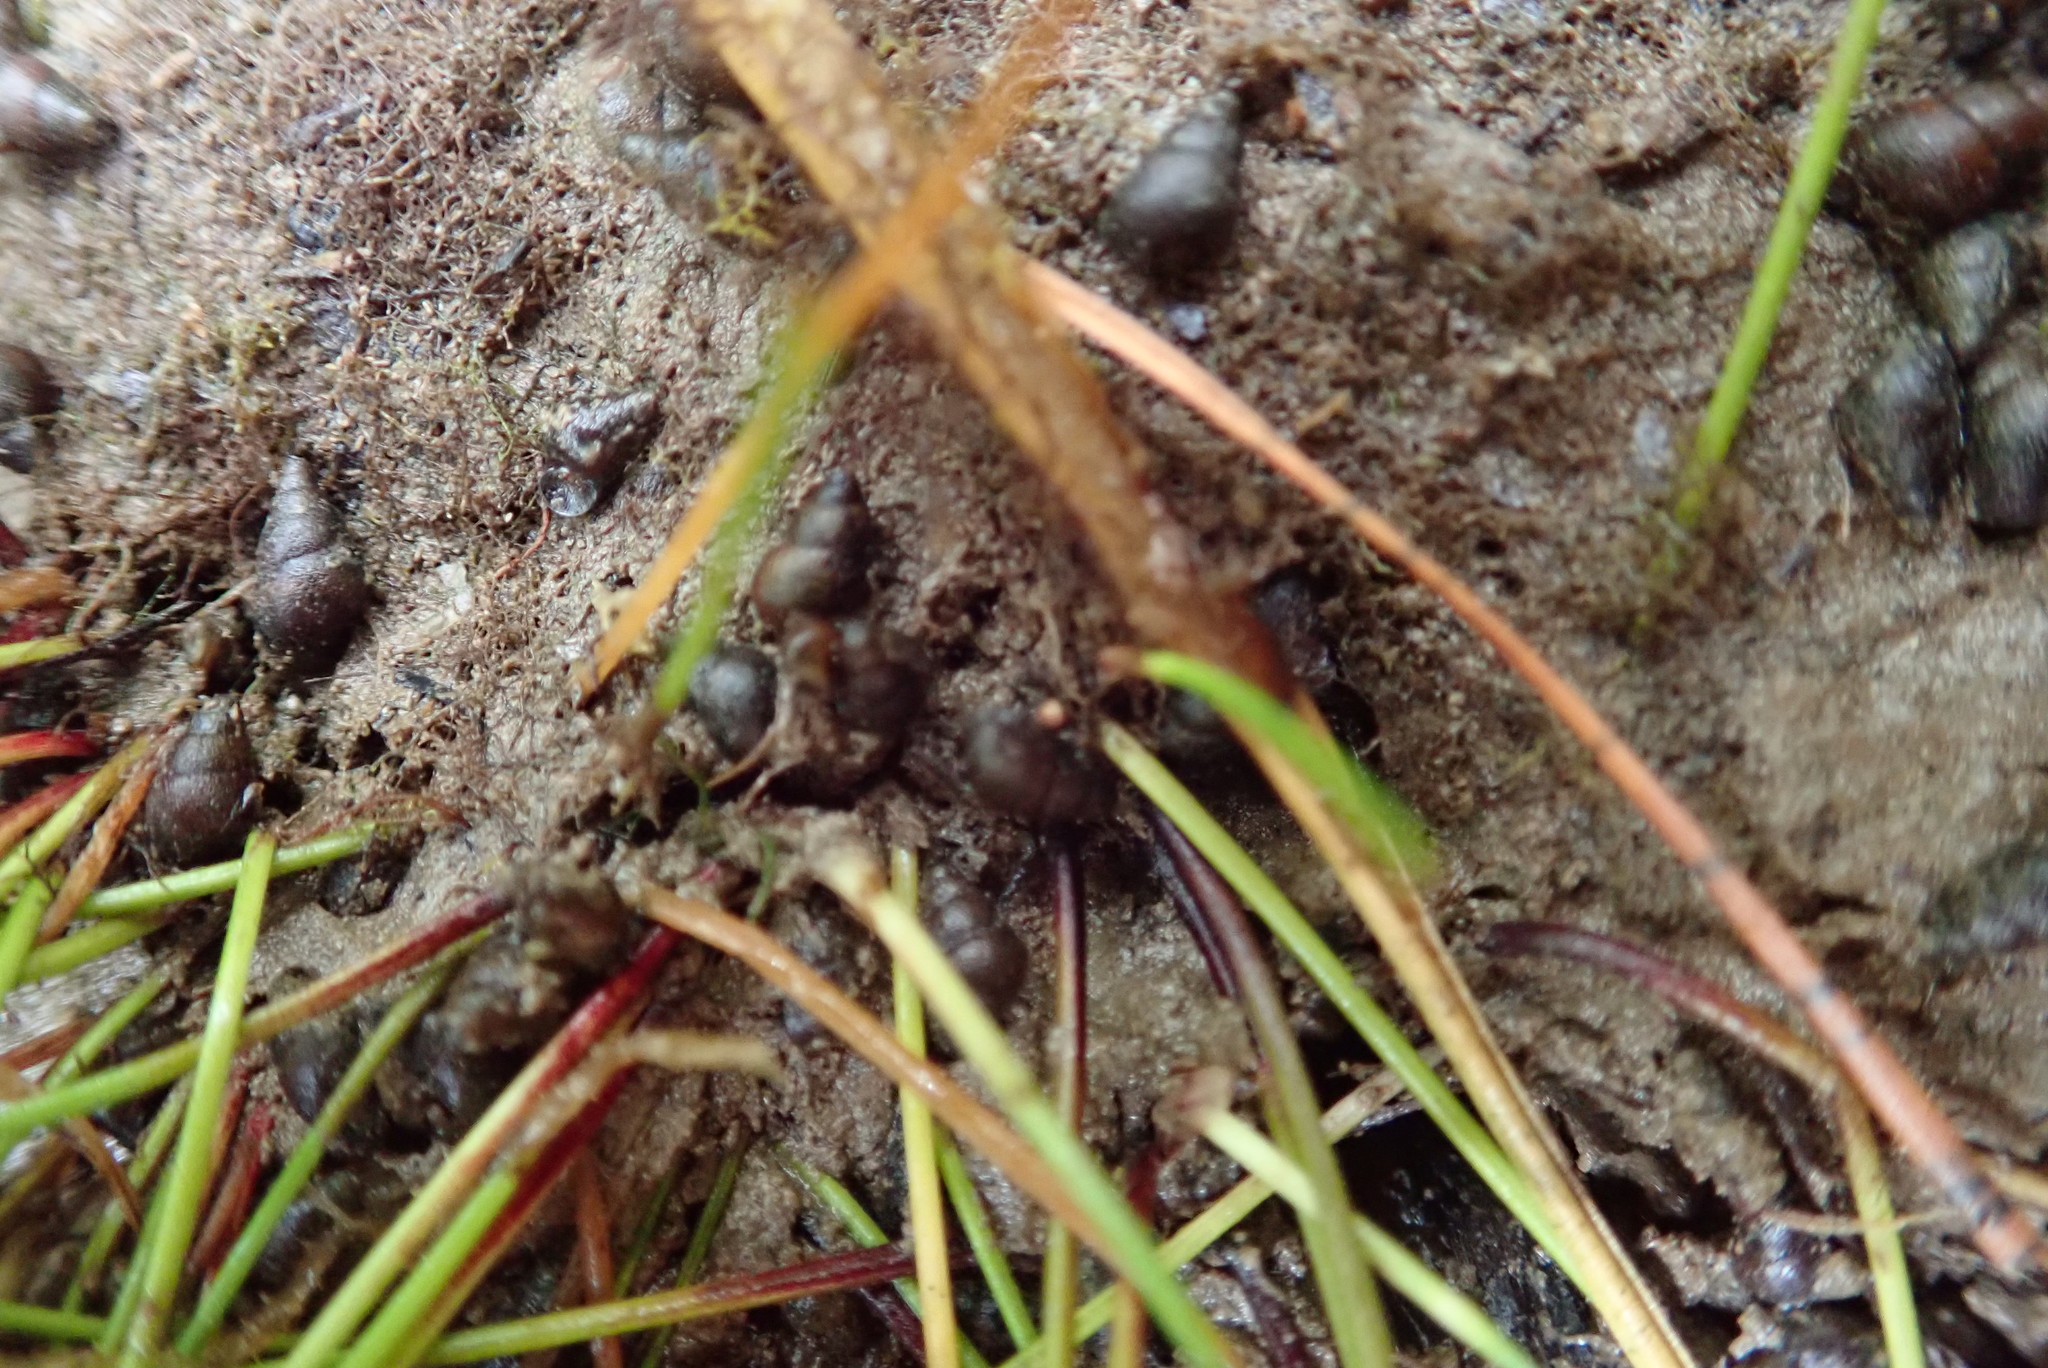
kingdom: Animalia
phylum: Mollusca
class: Gastropoda
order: Littorinimorpha
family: Tateidae
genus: Potamopyrgus
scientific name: Potamopyrgus estuarinus
